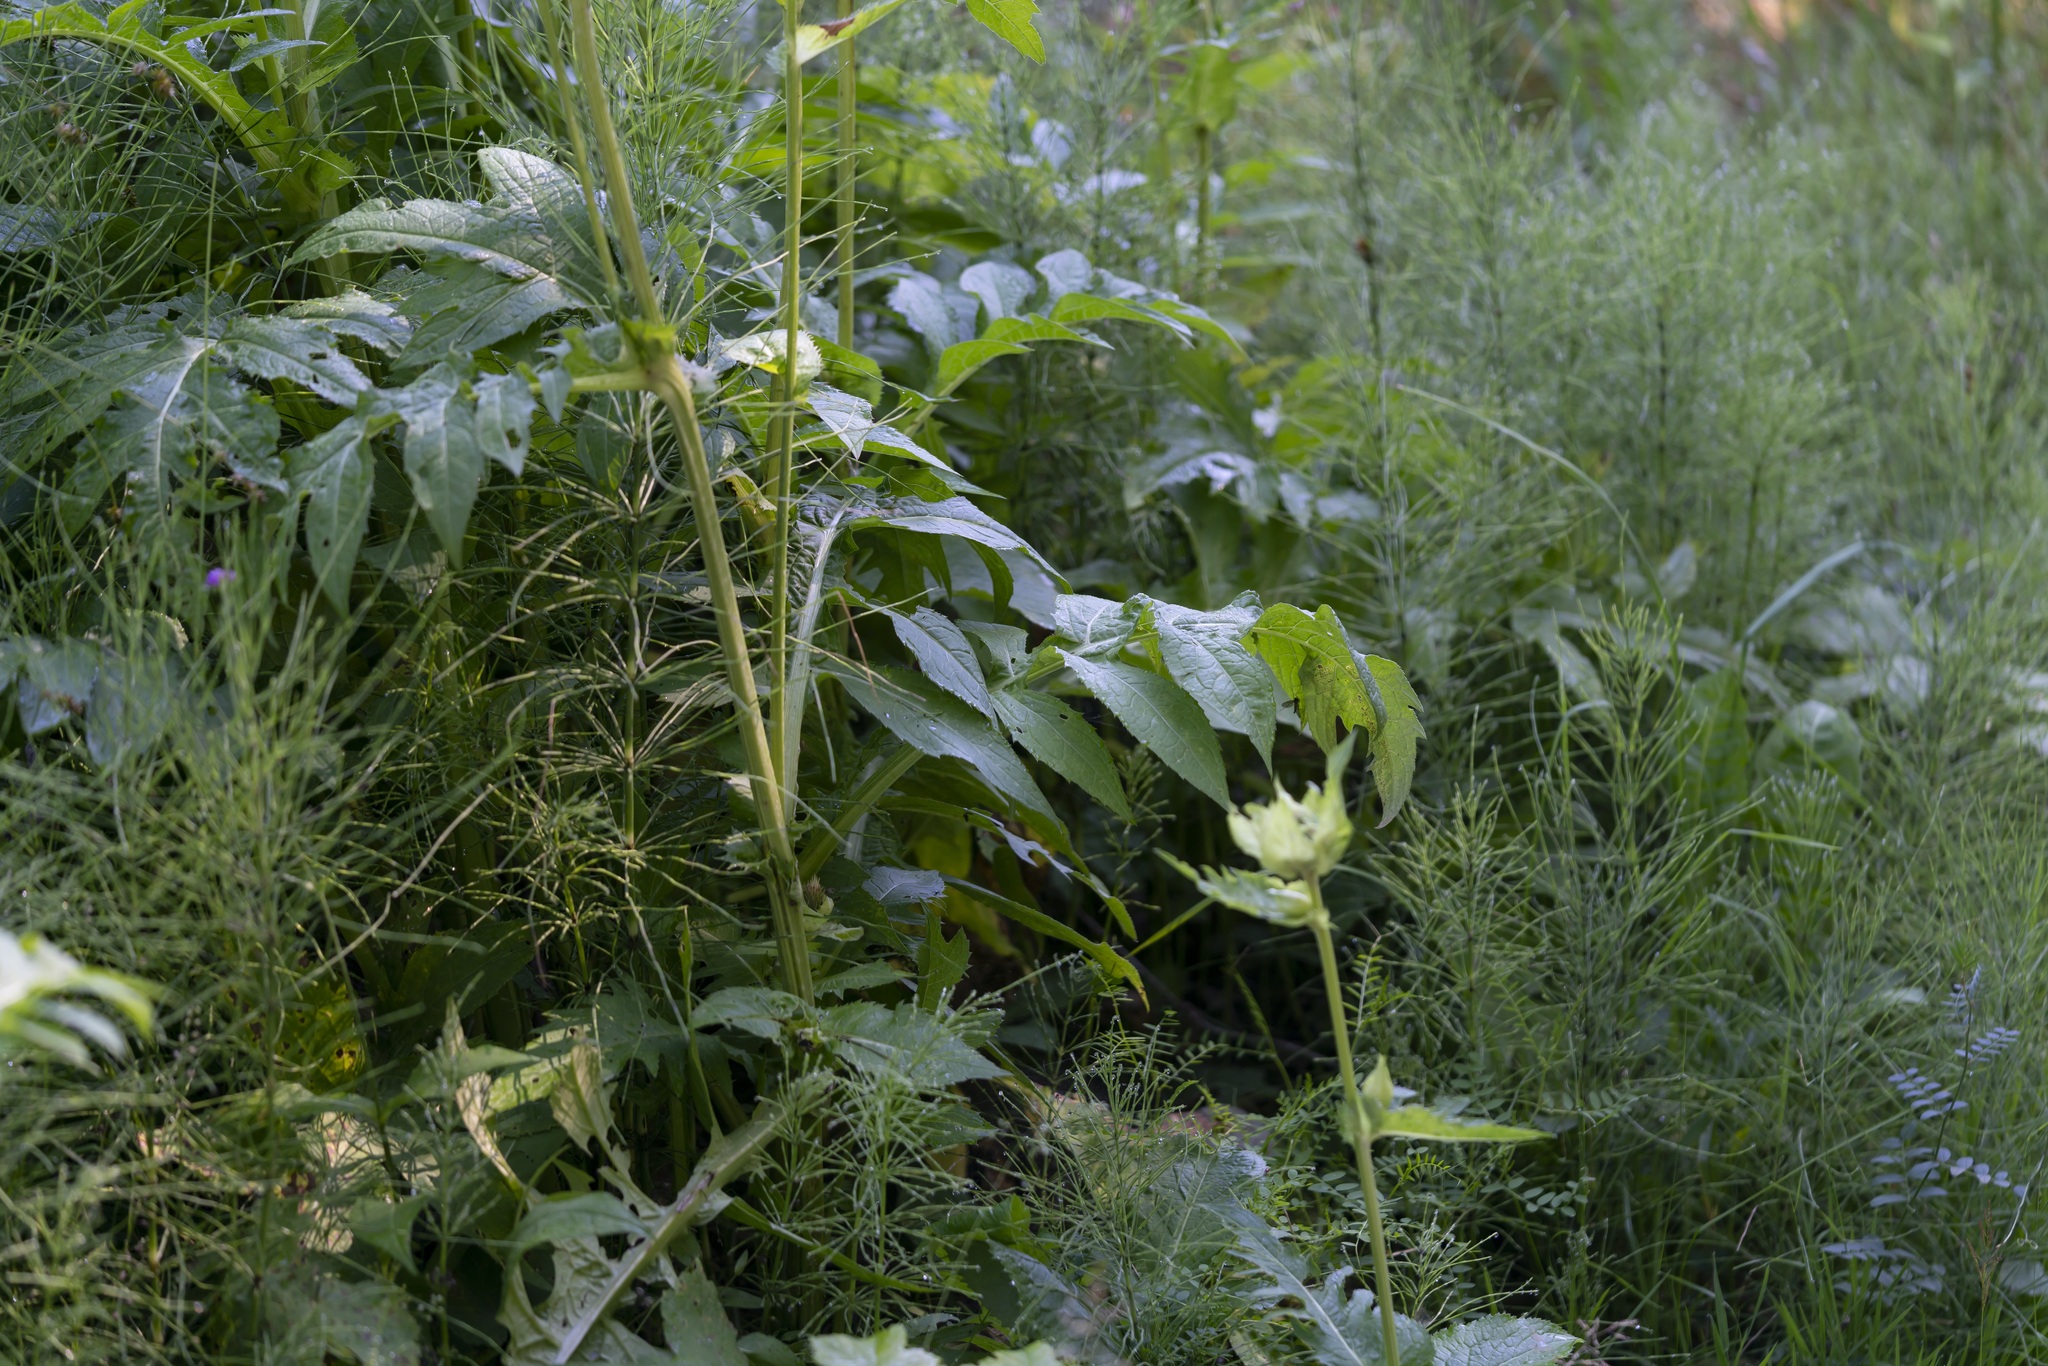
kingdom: Plantae
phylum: Tracheophyta
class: Magnoliopsida
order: Asterales
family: Asteraceae
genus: Cirsium
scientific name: Cirsium oleraceum
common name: Cabbage thistle
